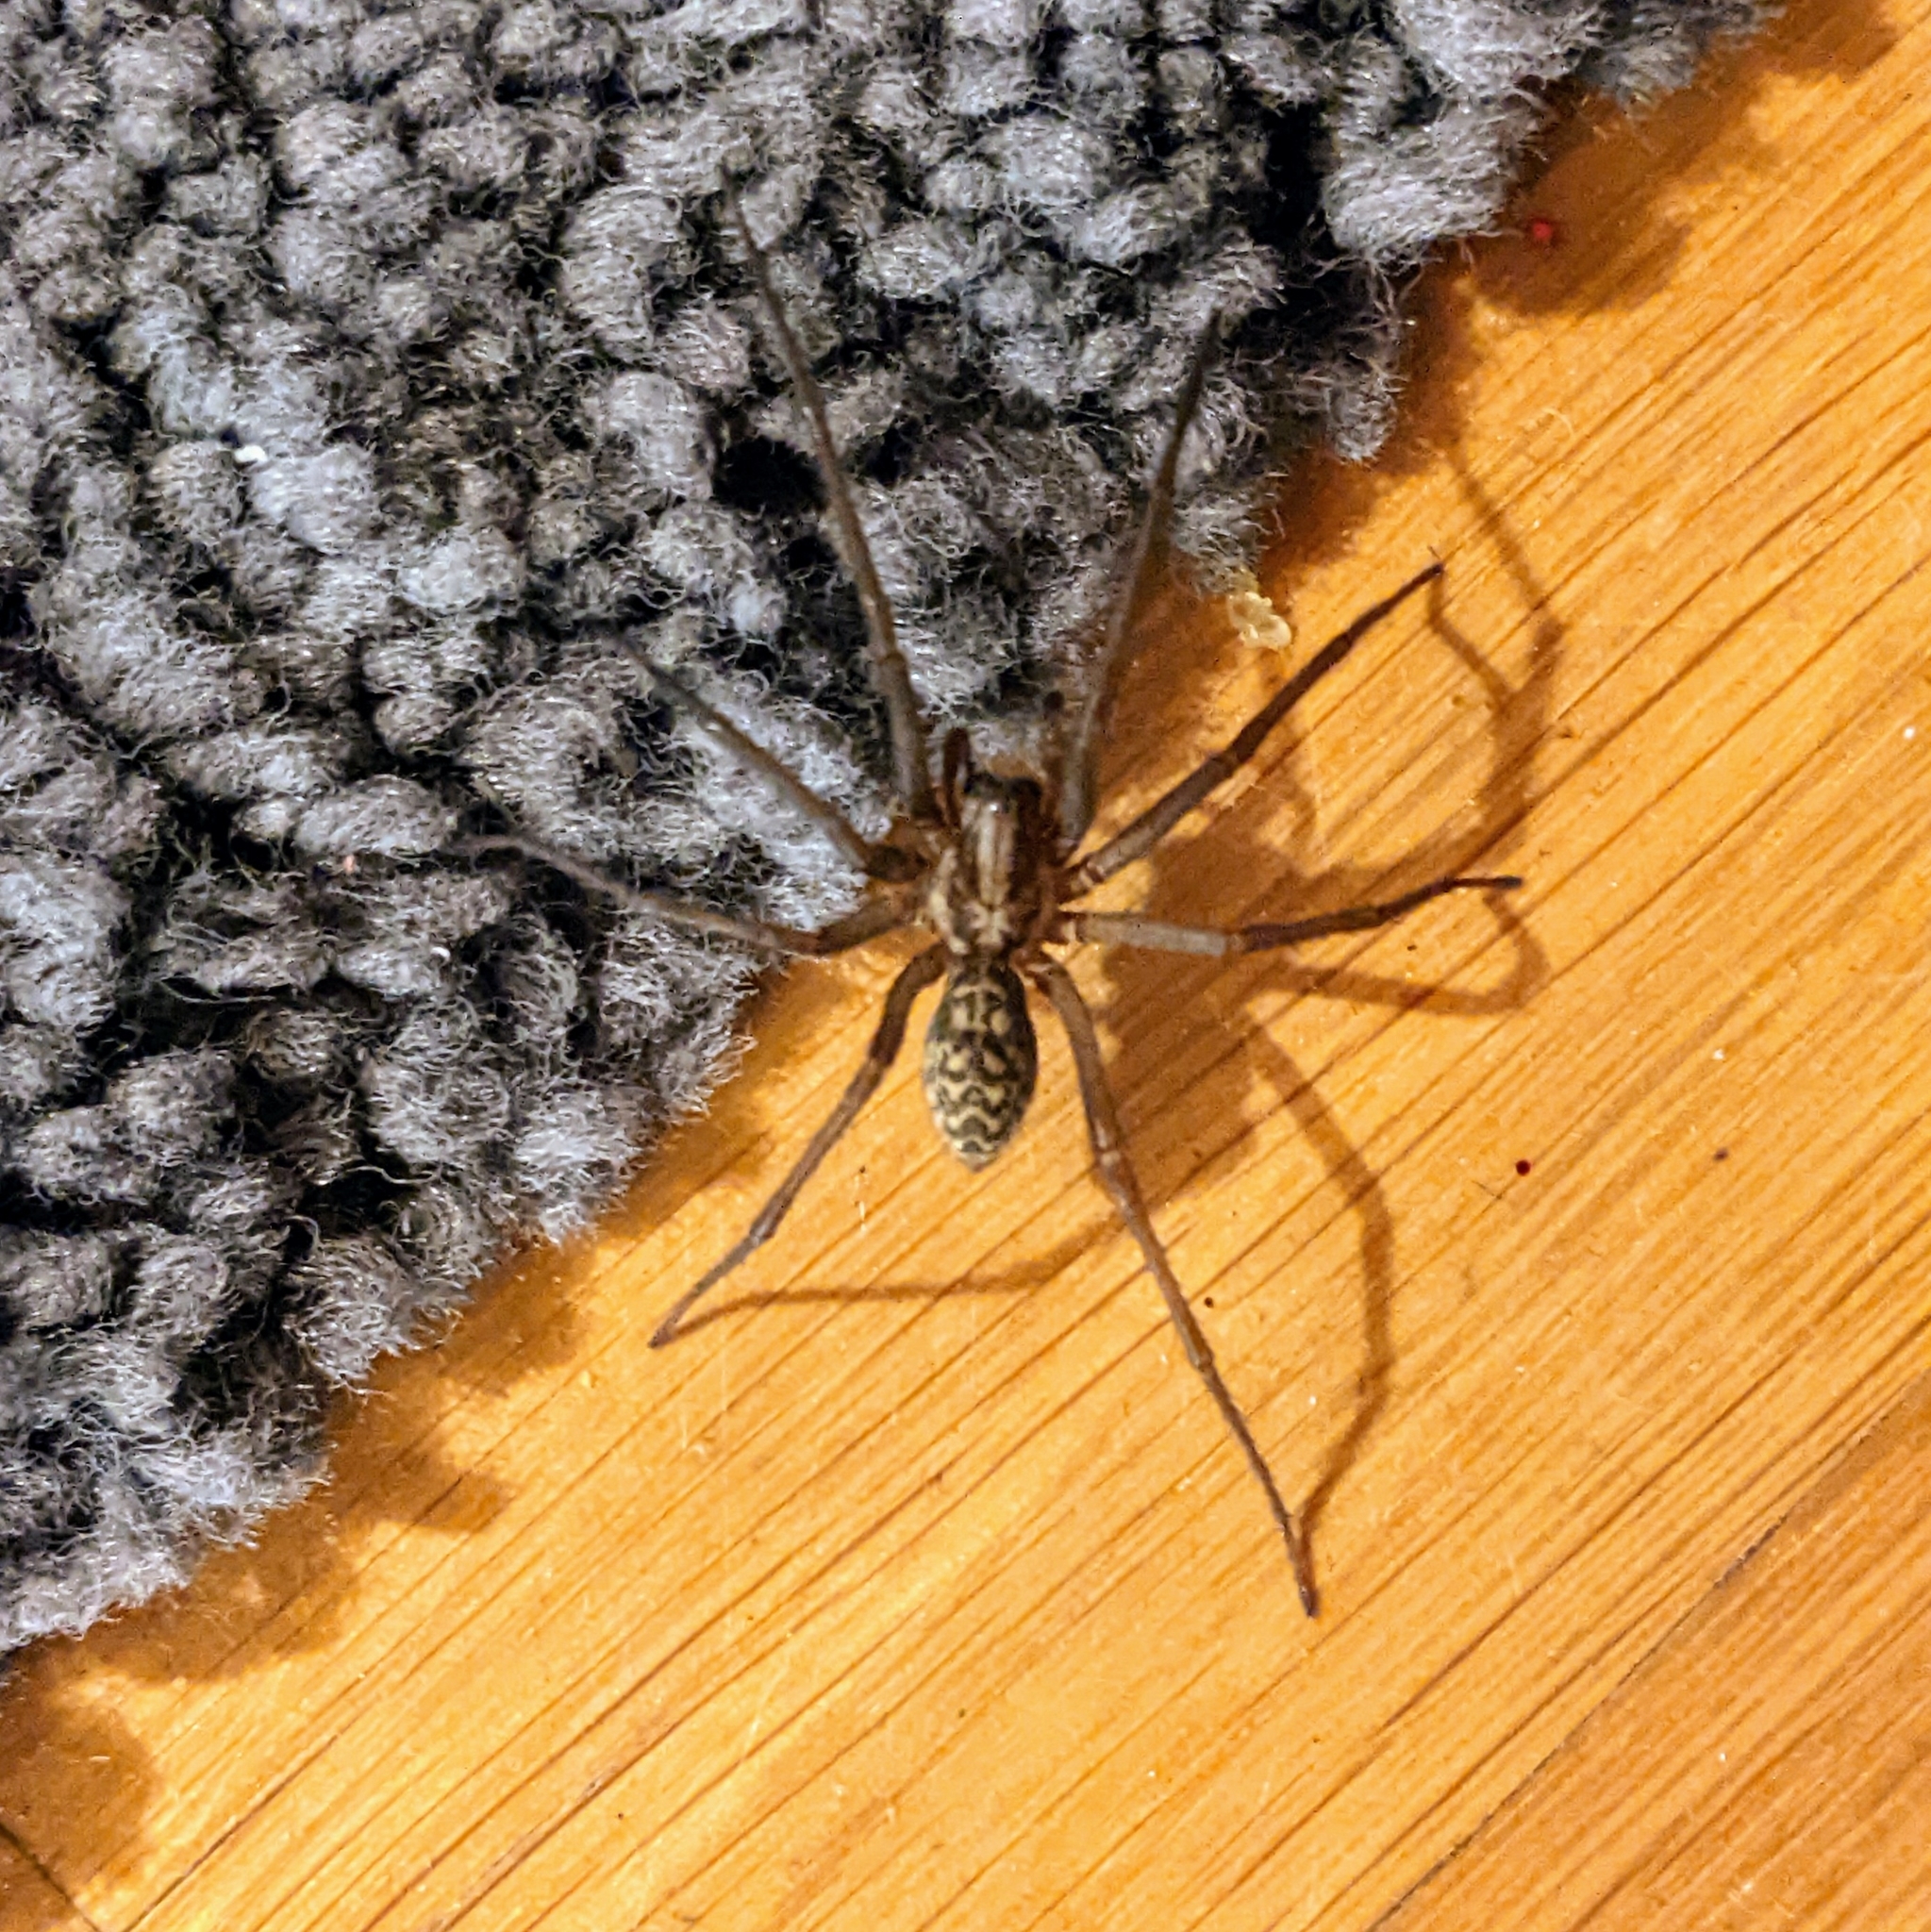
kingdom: Animalia
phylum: Arthropoda
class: Arachnida
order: Araneae
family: Agelenidae
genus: Eratigena
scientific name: Eratigena atrica
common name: Giant house spider
